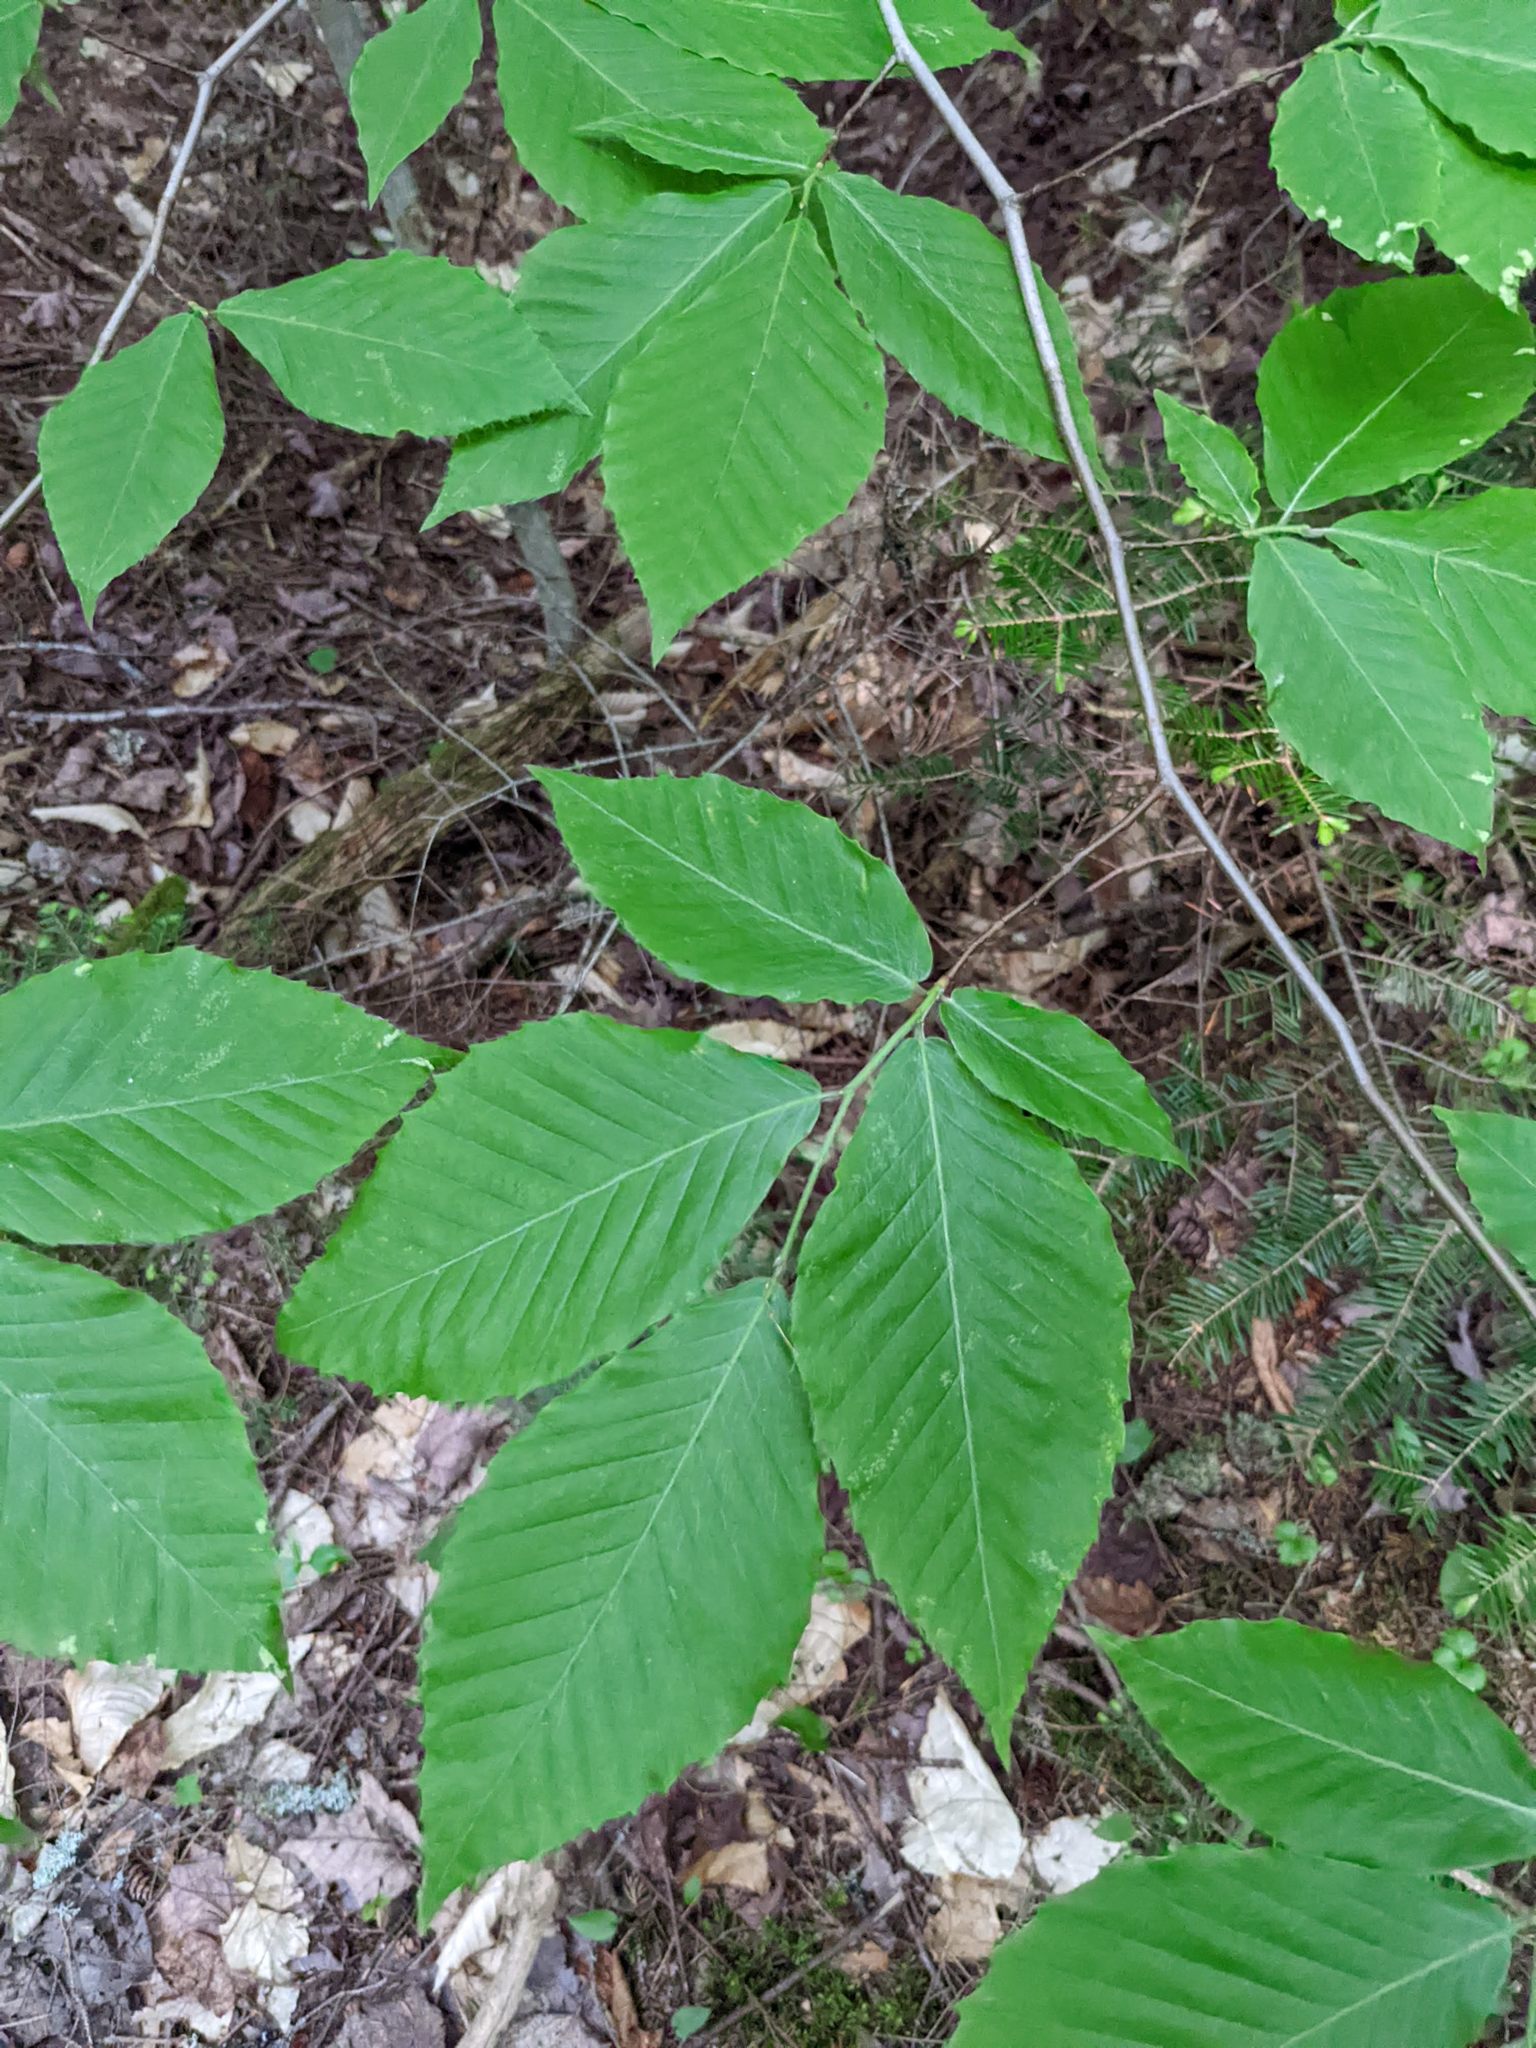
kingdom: Plantae
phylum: Tracheophyta
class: Magnoliopsida
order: Fagales
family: Fagaceae
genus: Fagus
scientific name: Fagus grandifolia
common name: American beech
